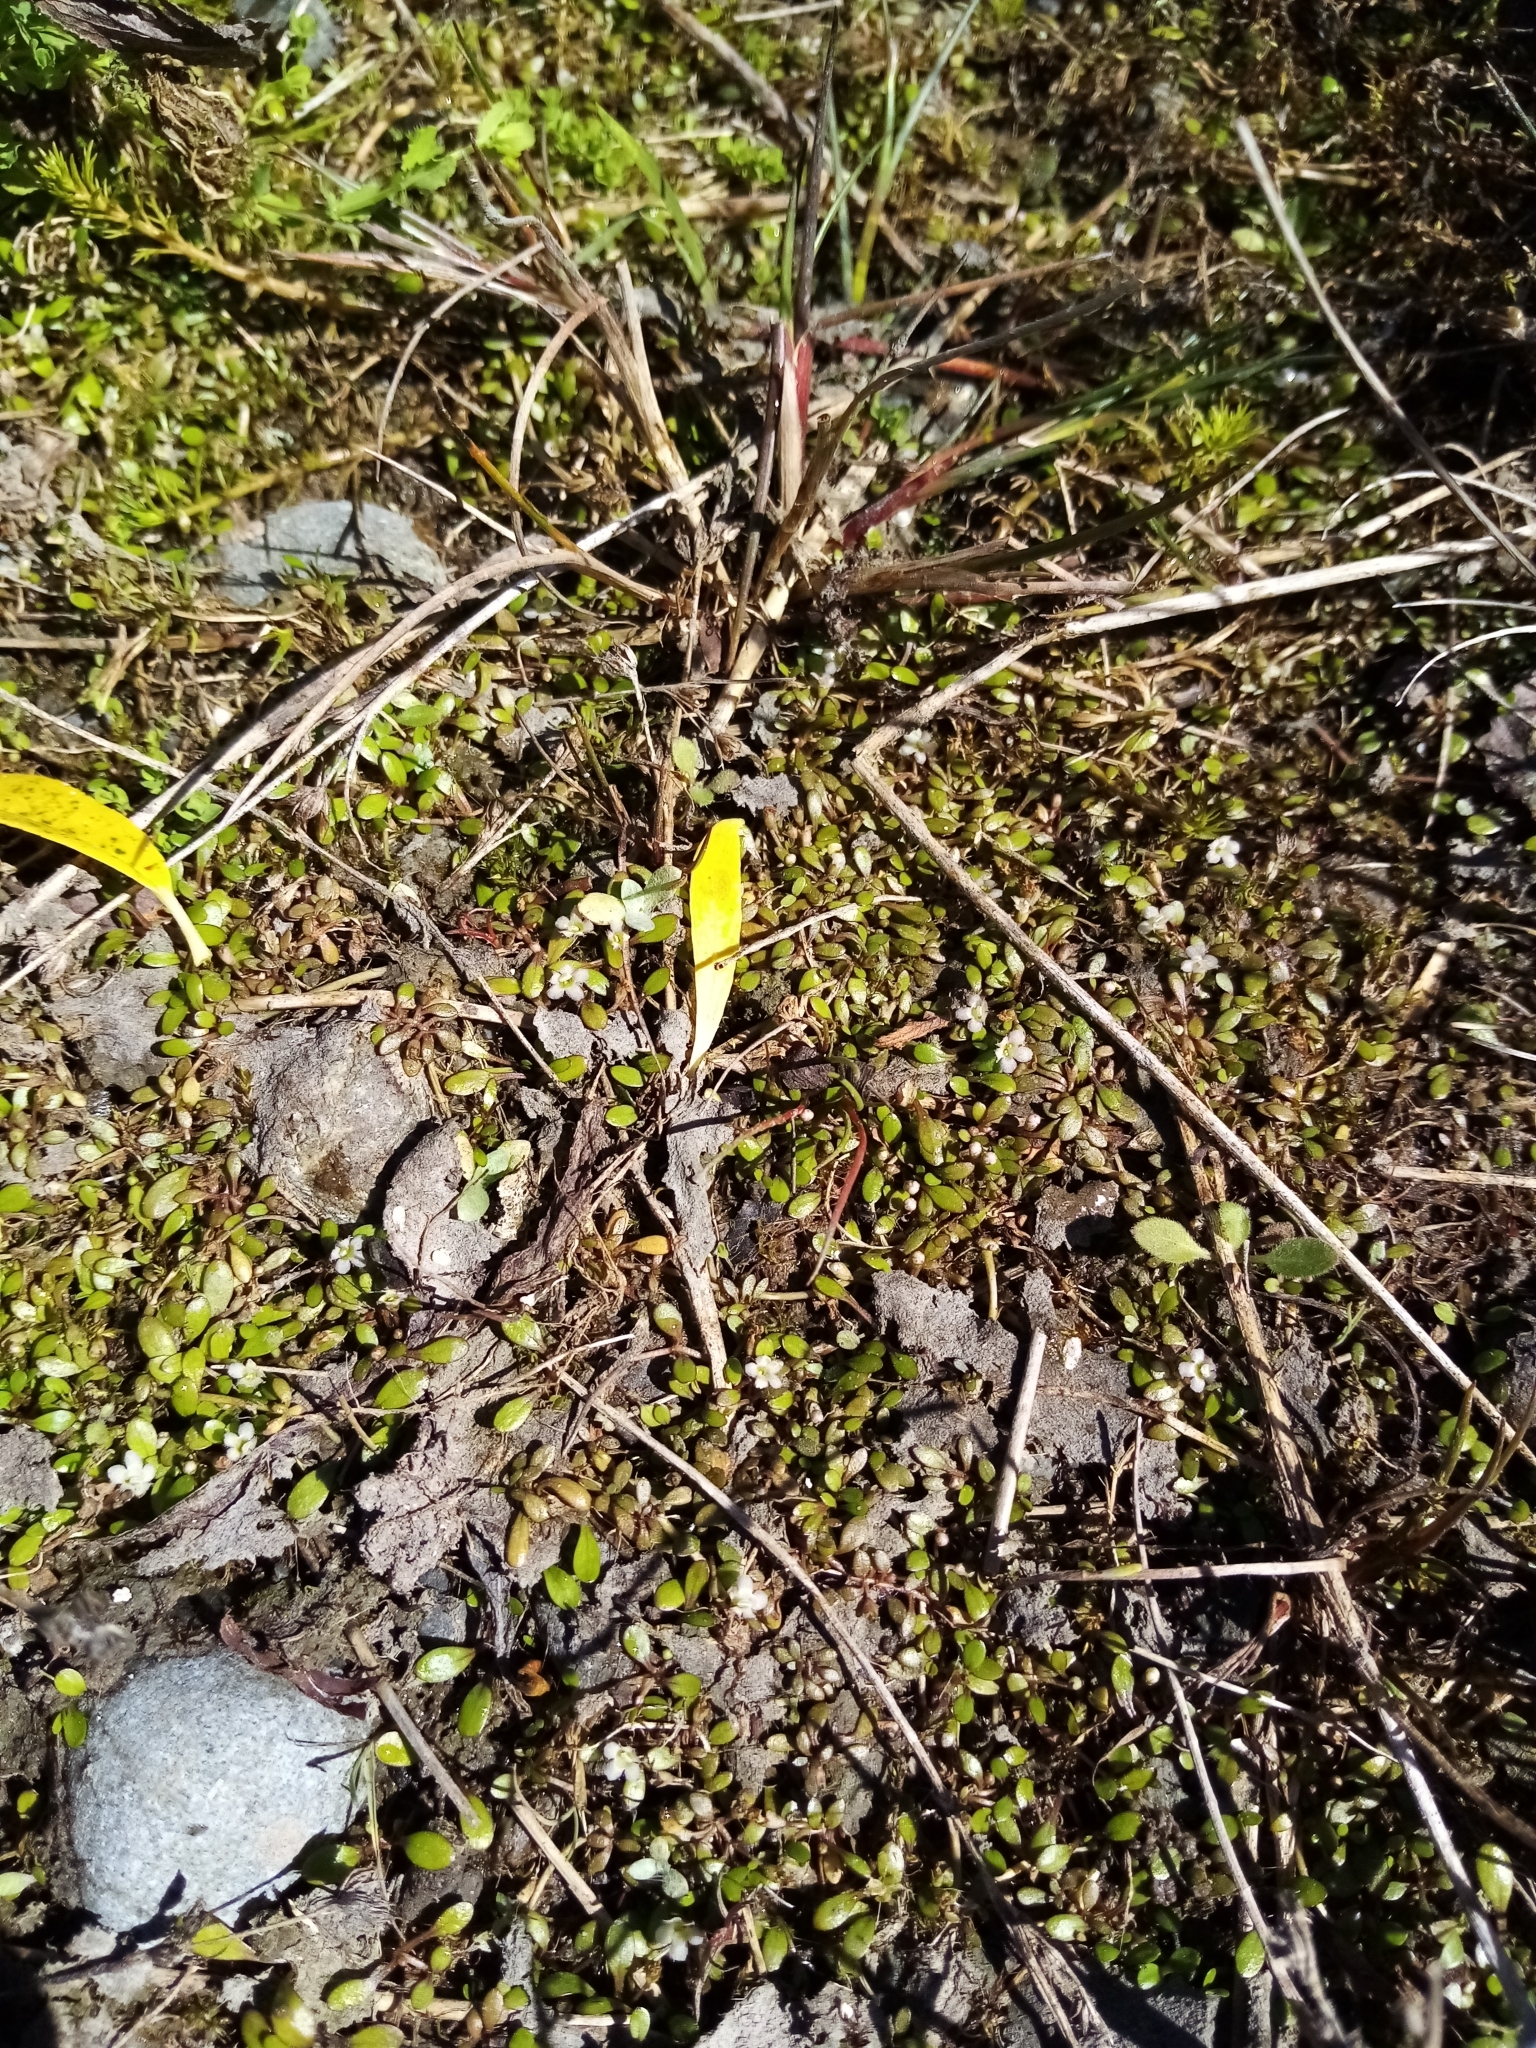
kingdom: Plantae
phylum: Tracheophyta
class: Magnoliopsida
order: Lamiales
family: Phrymaceae
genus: Glossostigma
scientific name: Glossostigma elatinoides
